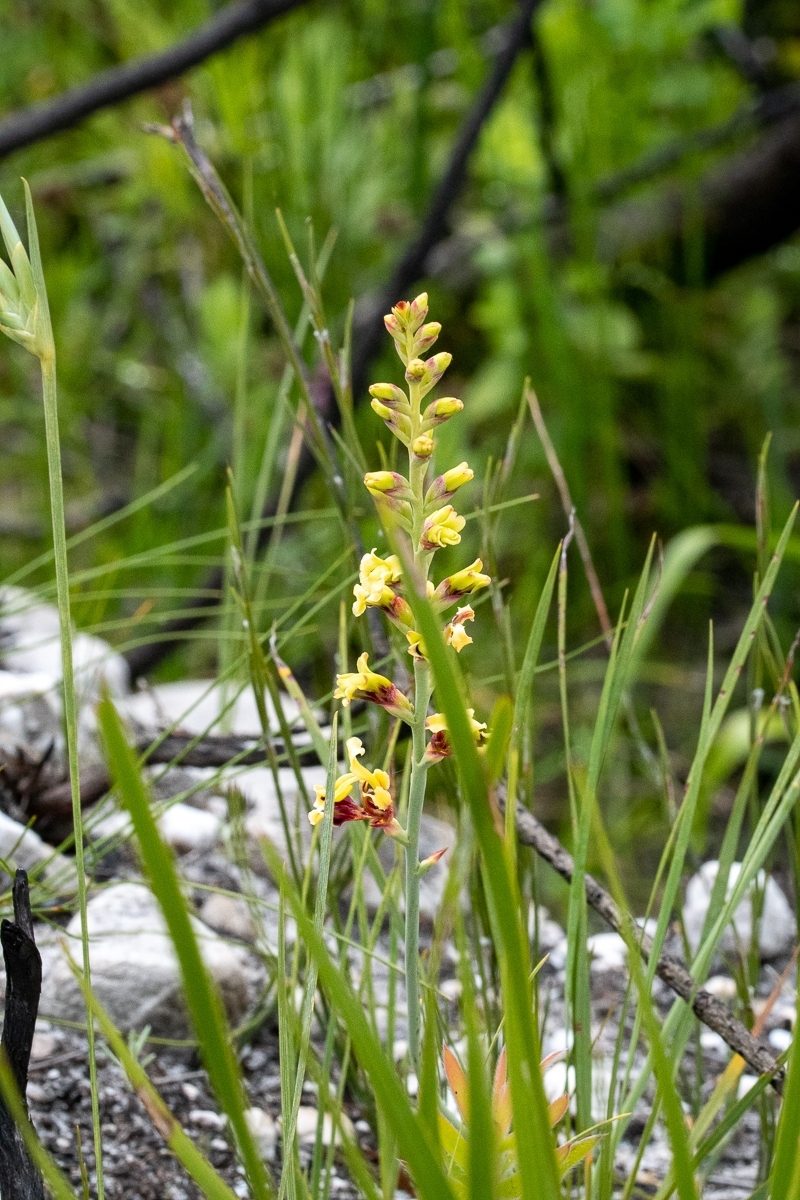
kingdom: Plantae
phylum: Tracheophyta
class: Liliopsida
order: Asparagales
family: Iridaceae
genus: Tritoniopsis
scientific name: Tritoniopsis parviflora
